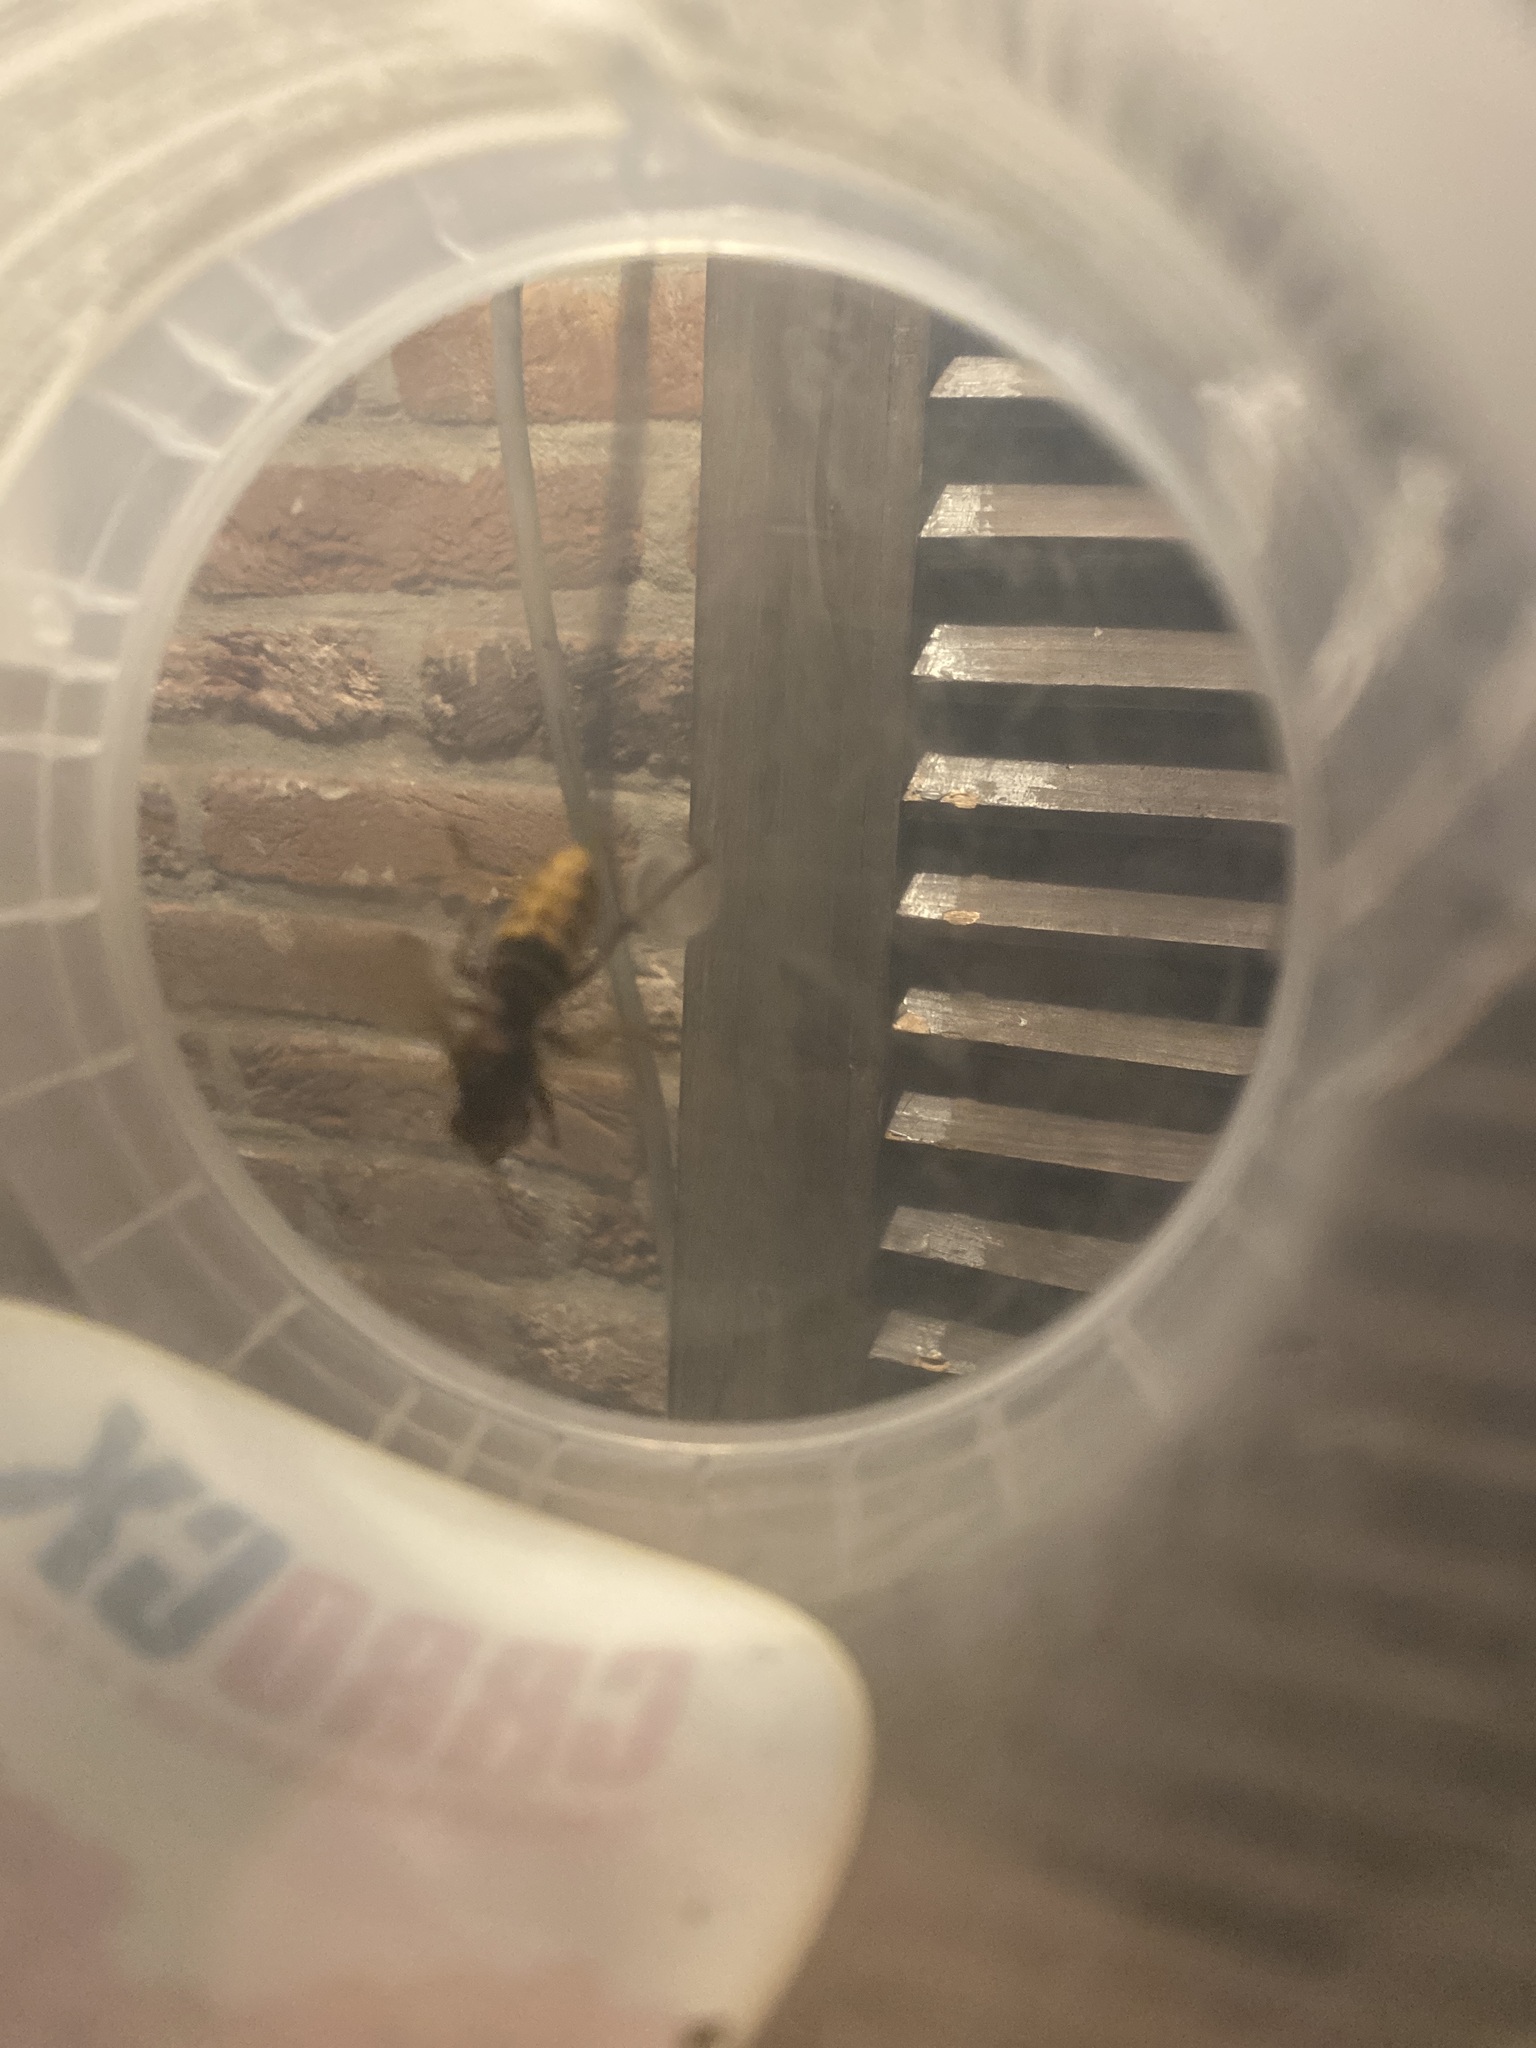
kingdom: Animalia
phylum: Arthropoda
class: Insecta
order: Hymenoptera
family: Vespidae
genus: Vespa
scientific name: Vespa crabro
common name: Hornet
